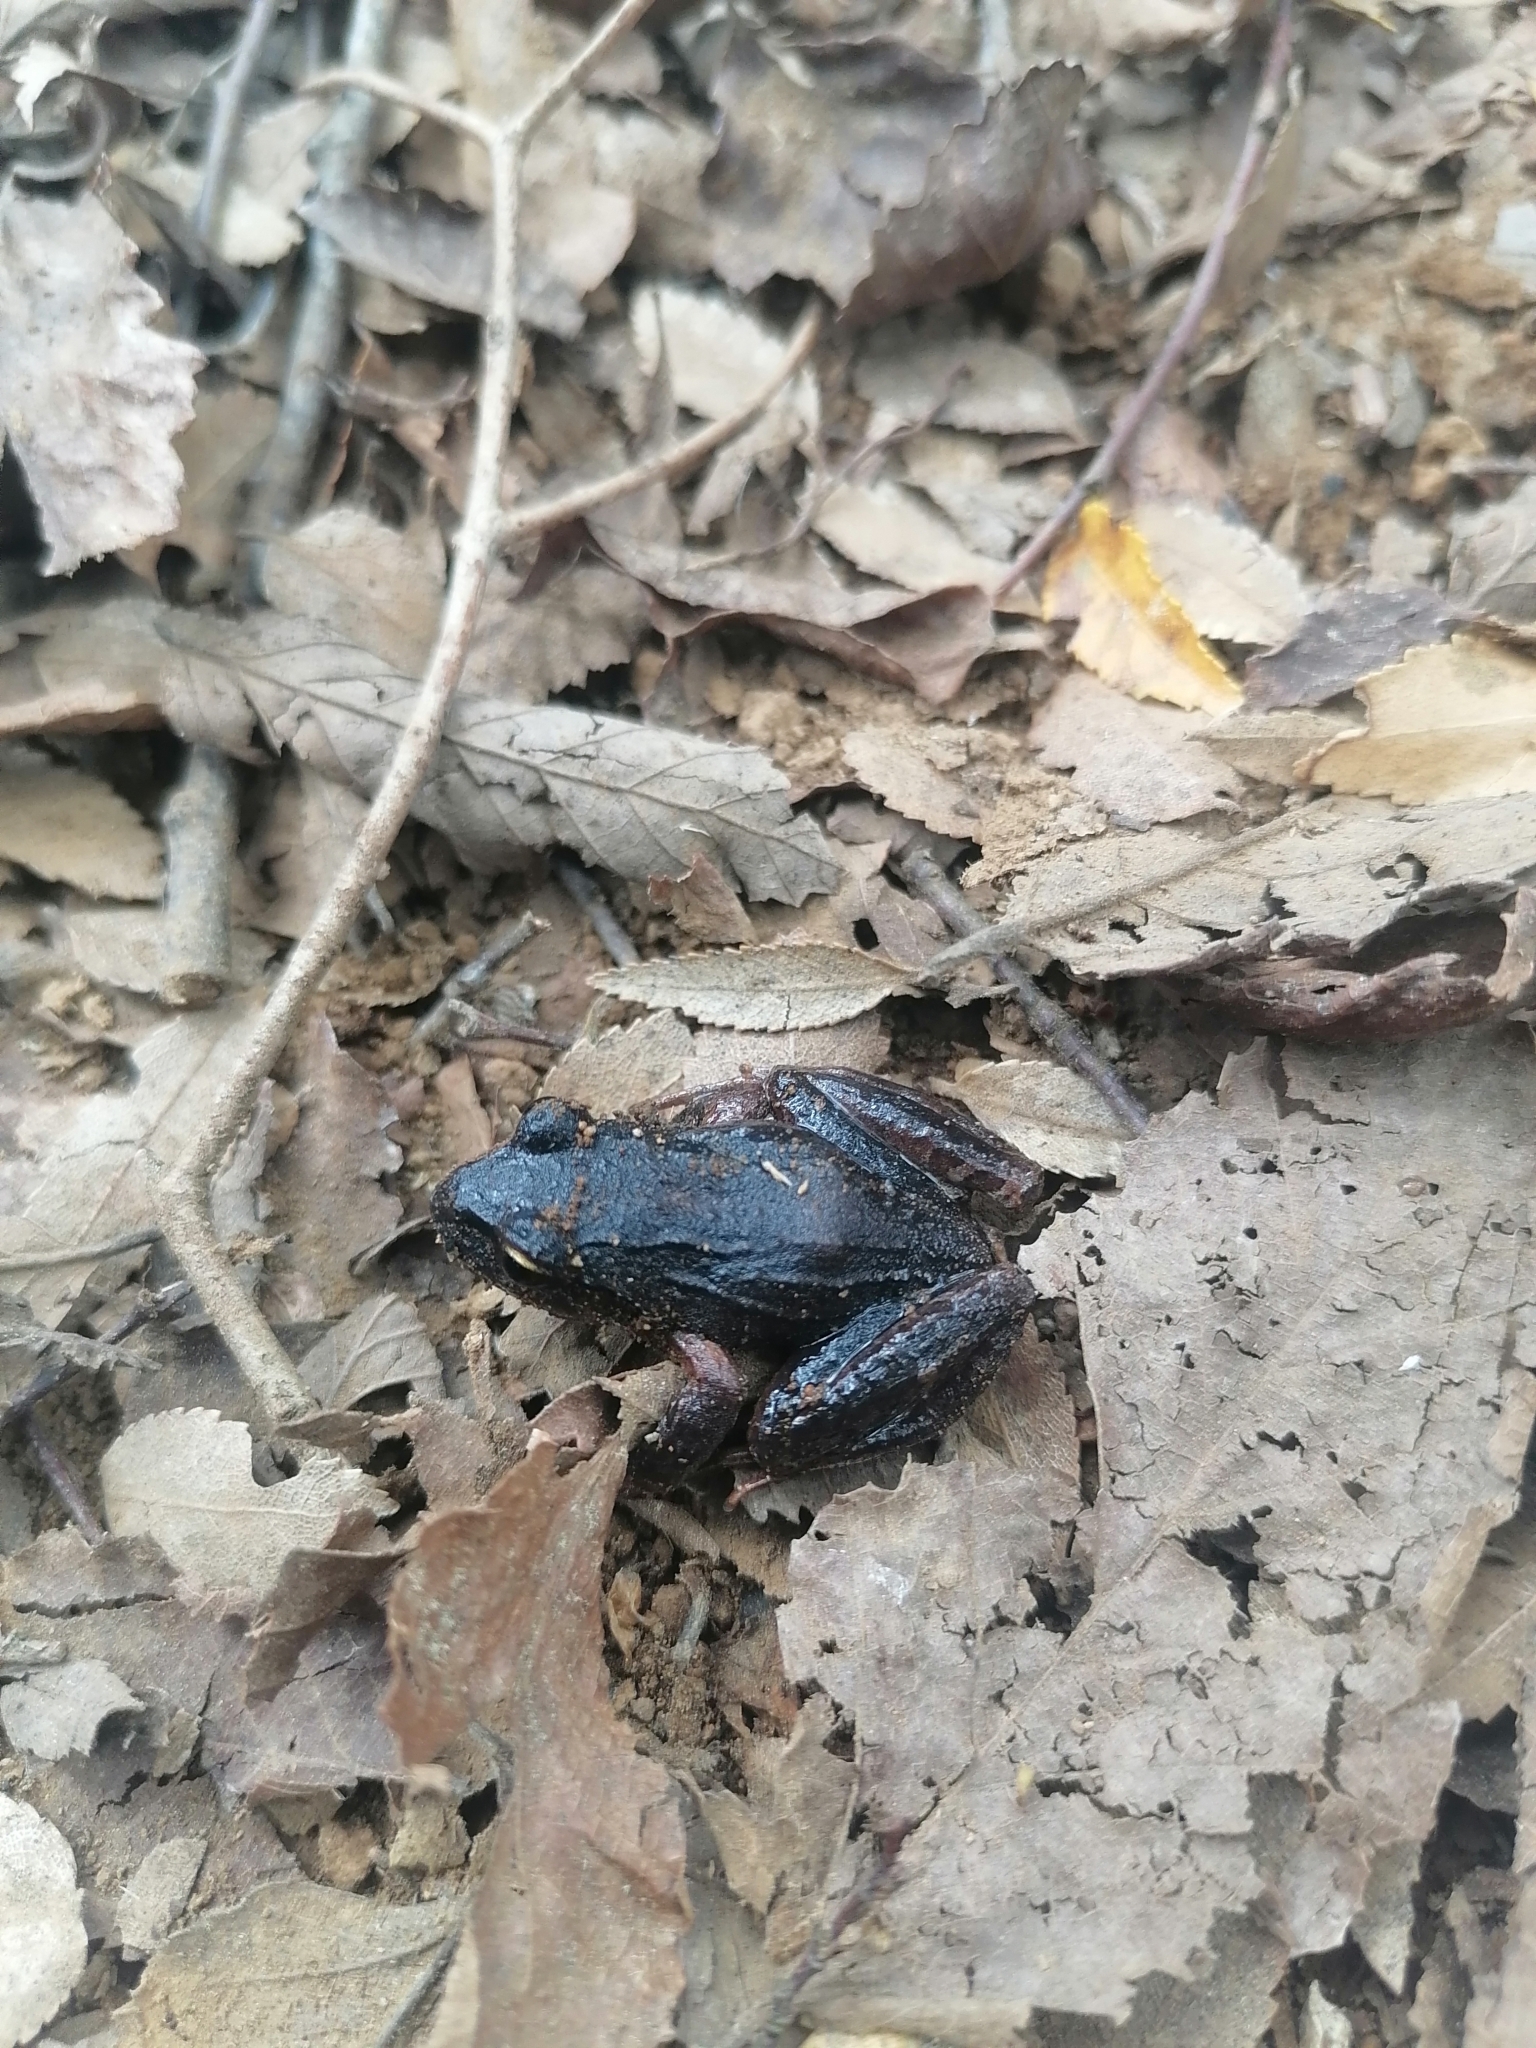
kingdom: Animalia
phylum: Chordata
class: Amphibia
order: Anura
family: Batrachylidae
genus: Batrachyla
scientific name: Batrachyla taeniata
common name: Banded wood frog
